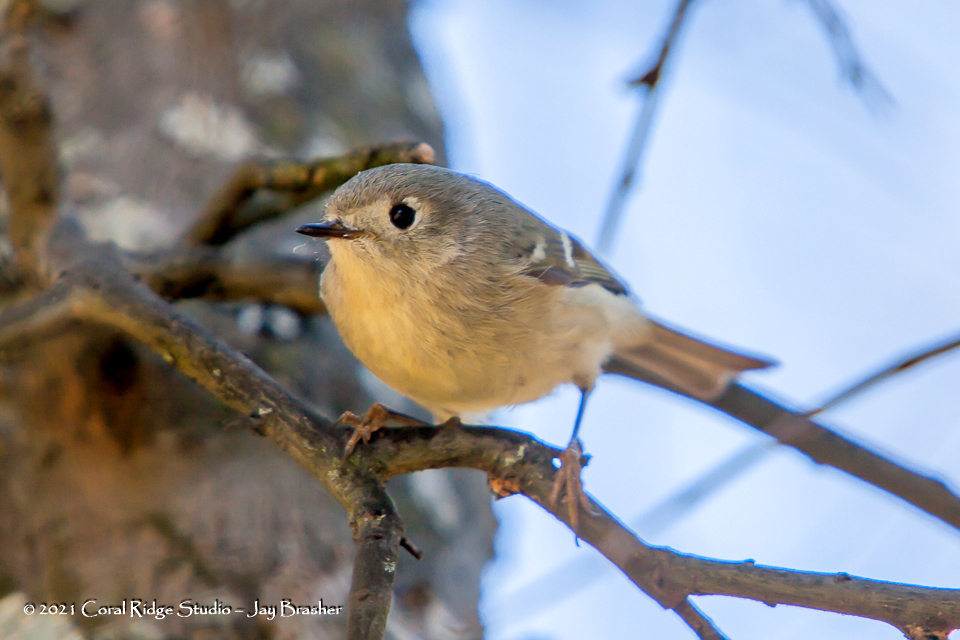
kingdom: Animalia
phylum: Chordata
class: Aves
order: Passeriformes
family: Regulidae
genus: Regulus
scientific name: Regulus calendula
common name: Ruby-crowned kinglet
